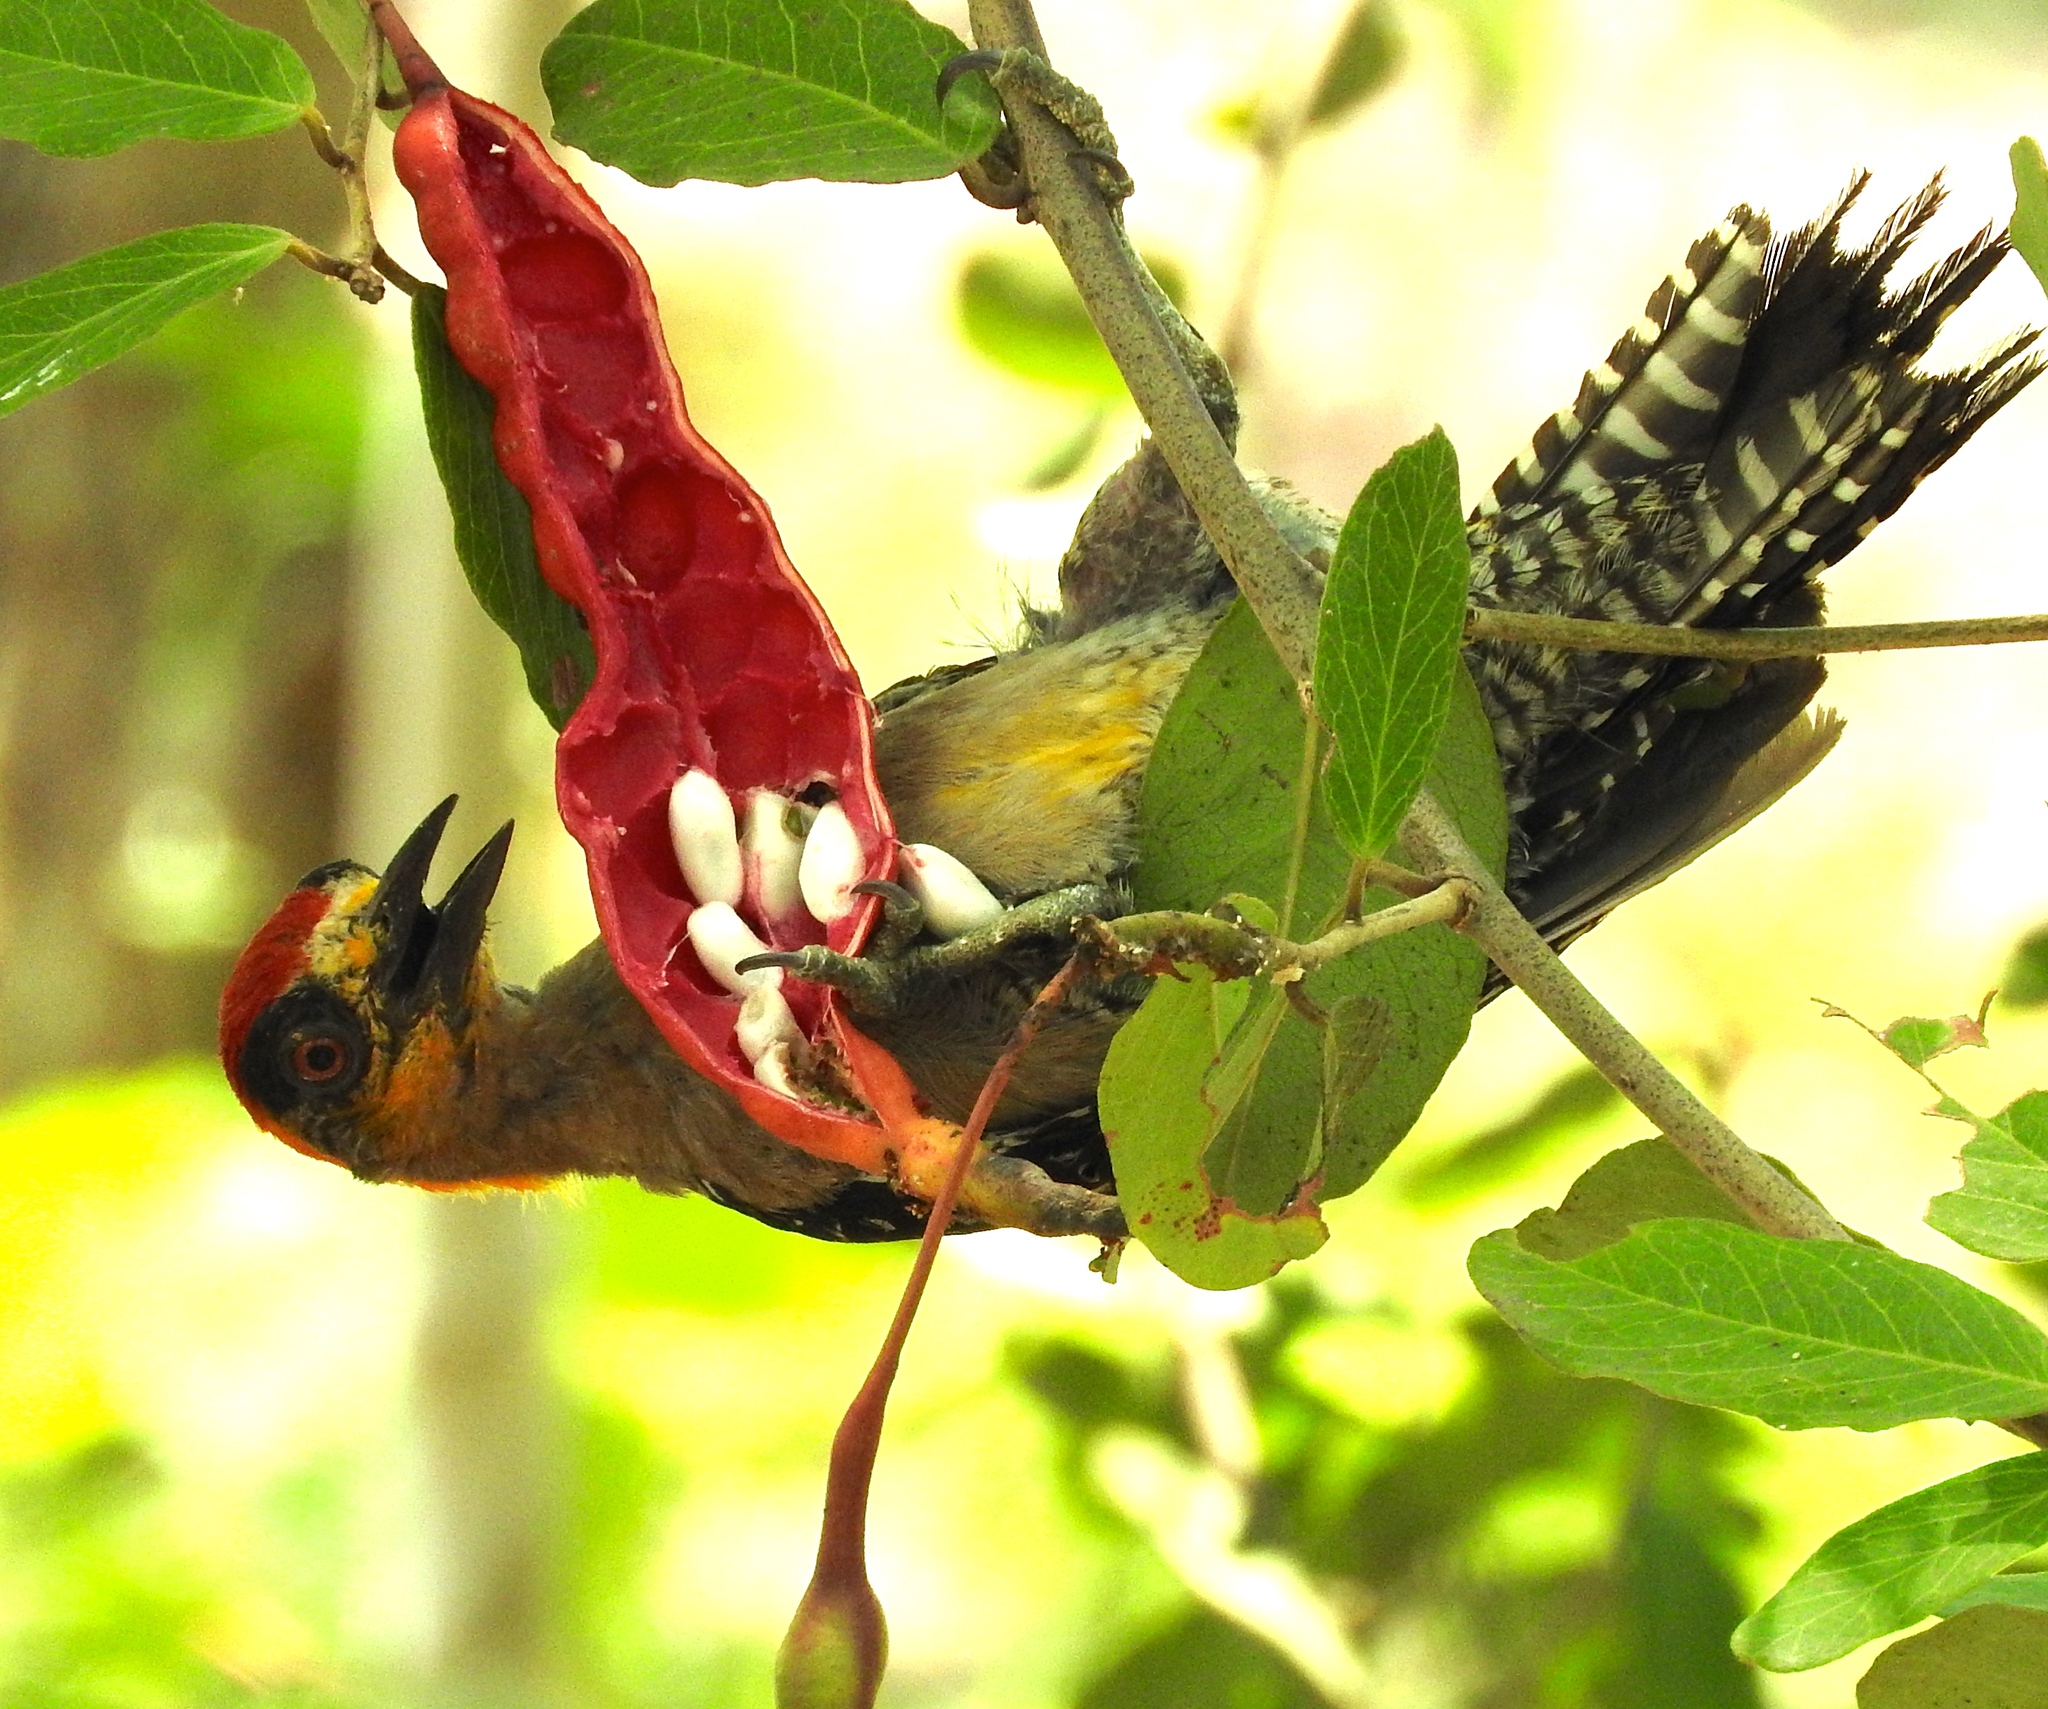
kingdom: Animalia
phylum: Chordata
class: Aves
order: Piciformes
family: Picidae
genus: Melanerpes
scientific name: Melanerpes chrysogenys
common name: Golden-cheeked woodpecker
